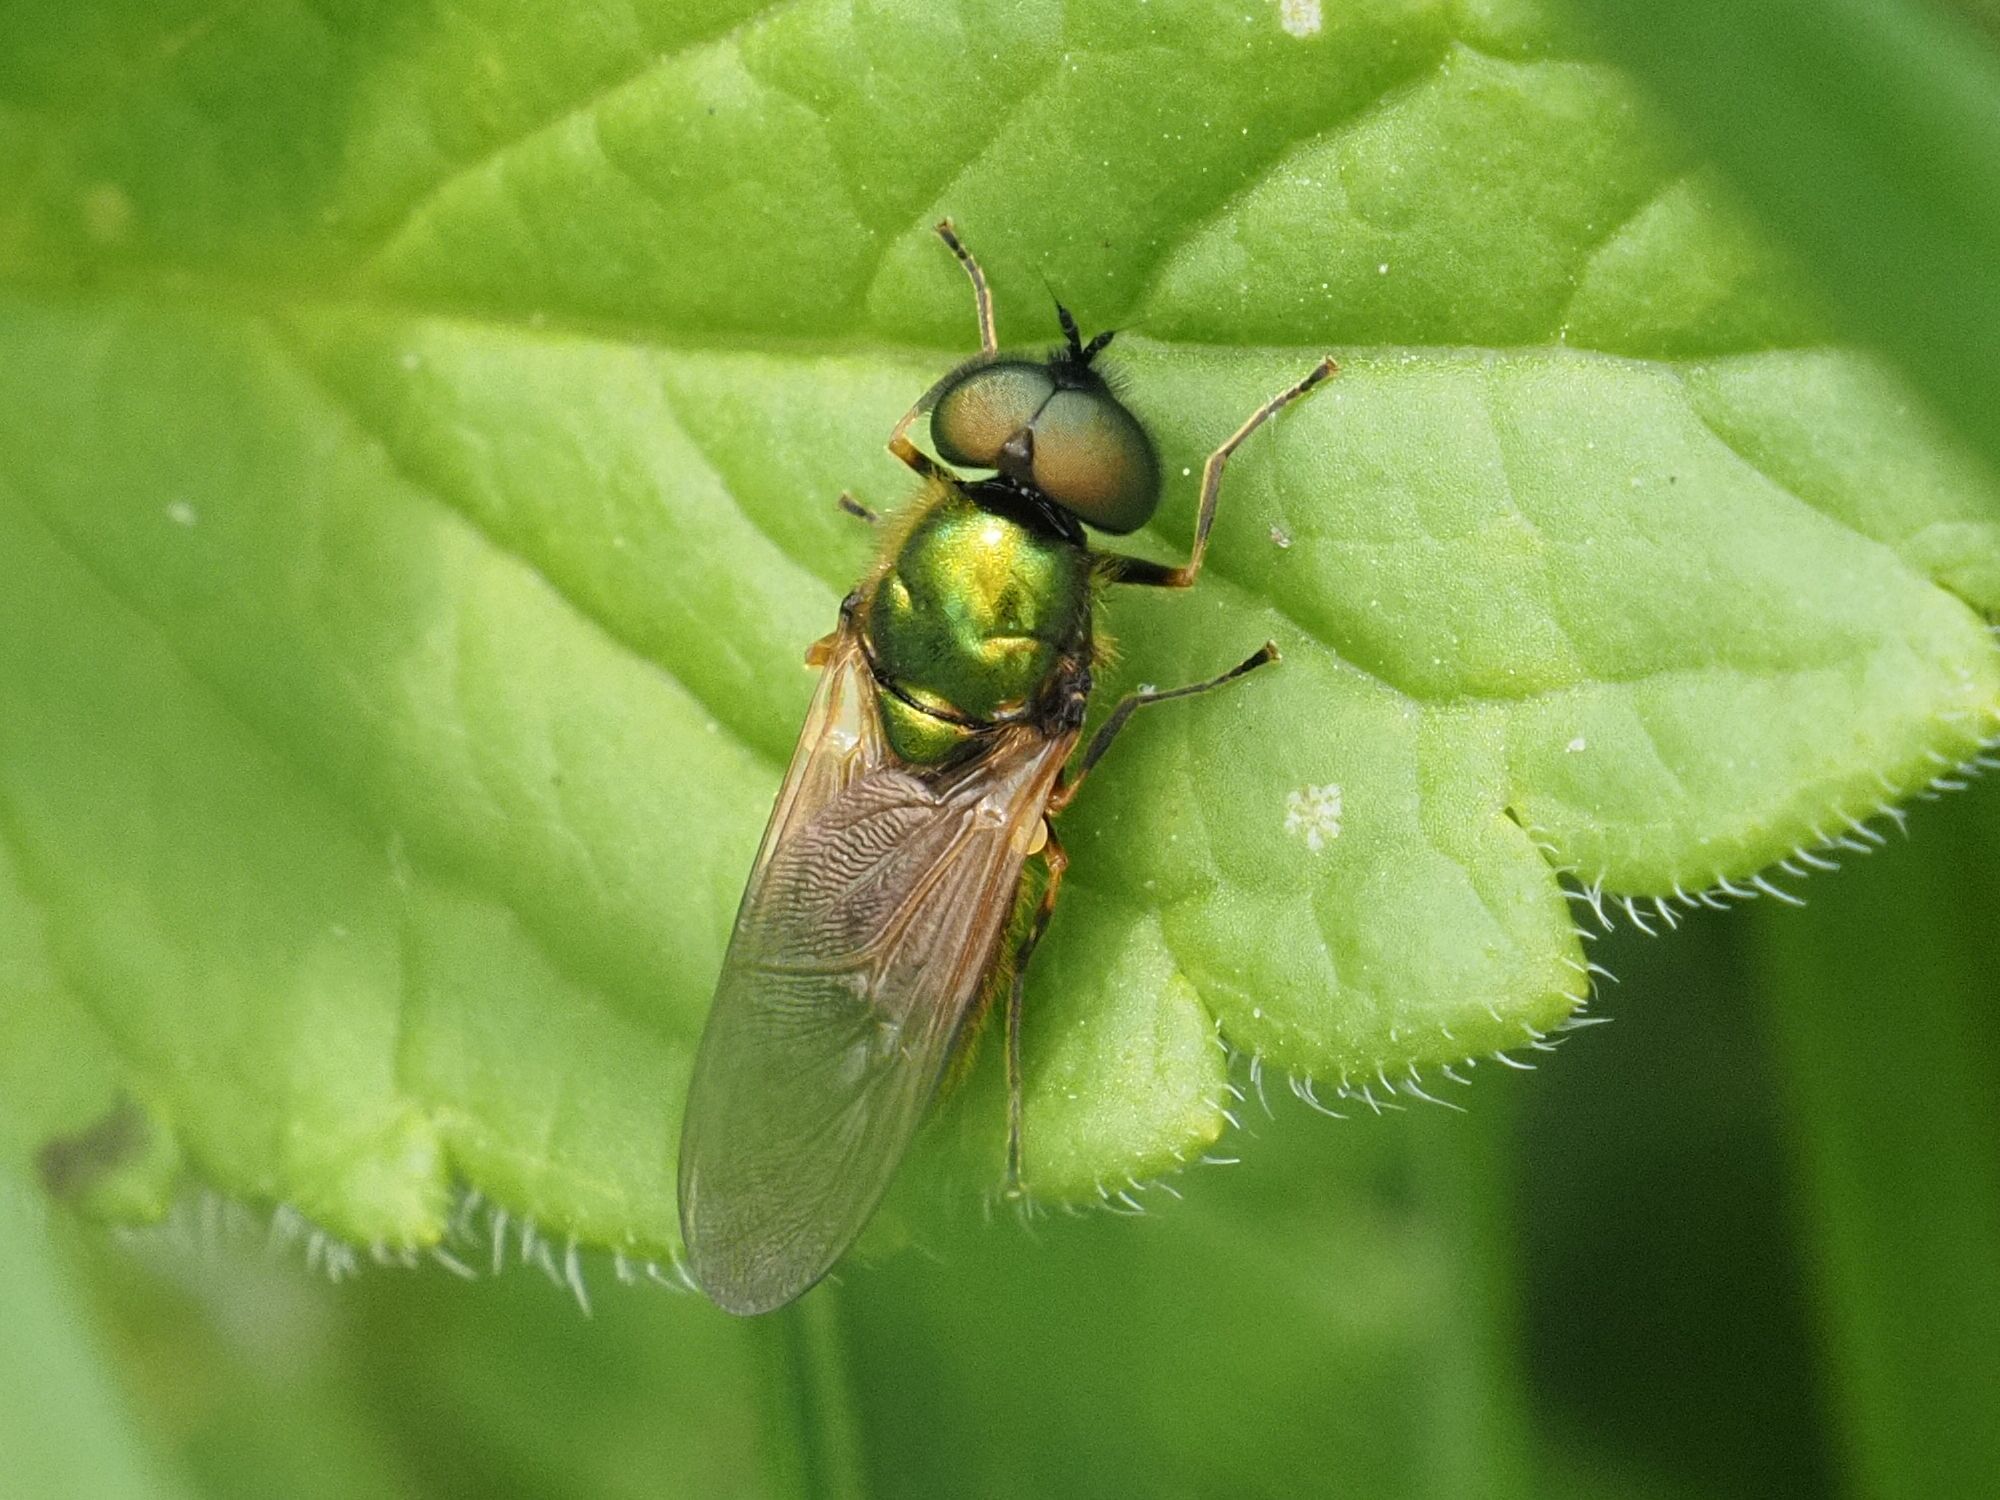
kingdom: Animalia
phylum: Arthropoda
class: Insecta
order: Diptera
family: Stratiomyidae
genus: Chloromyia
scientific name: Chloromyia formosa
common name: Soldier fly
